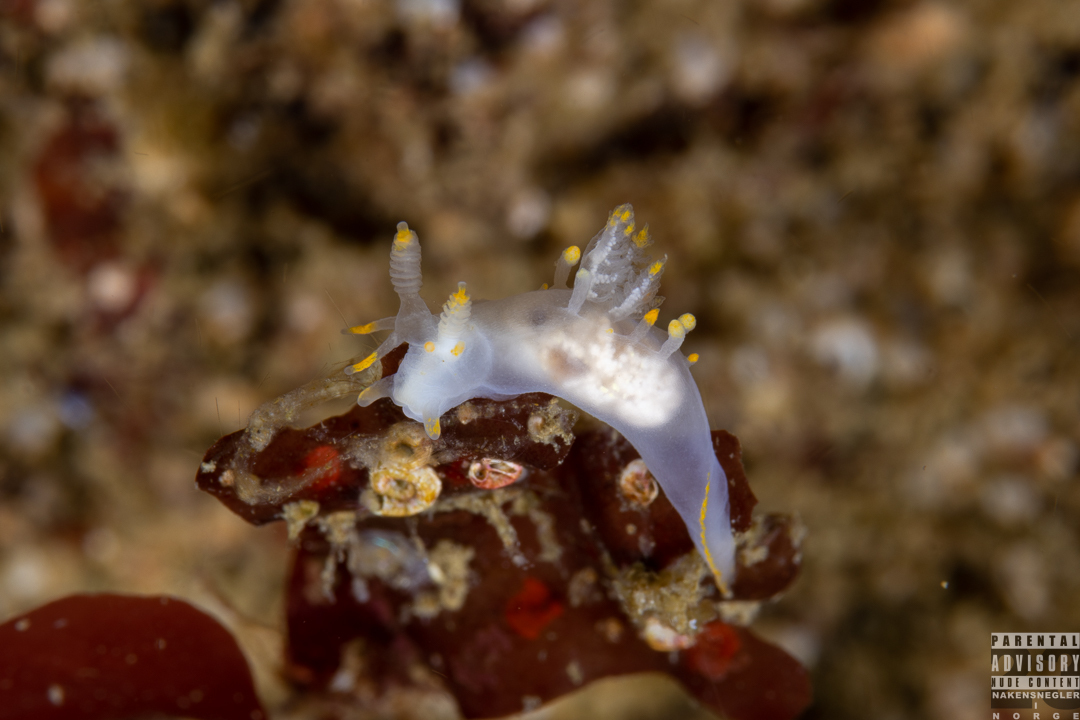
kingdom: Animalia
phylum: Mollusca
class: Gastropoda
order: Nudibranchia
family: Goniodorididae
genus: Ancula
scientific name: Ancula gibbosa
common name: Atlantic ancula
